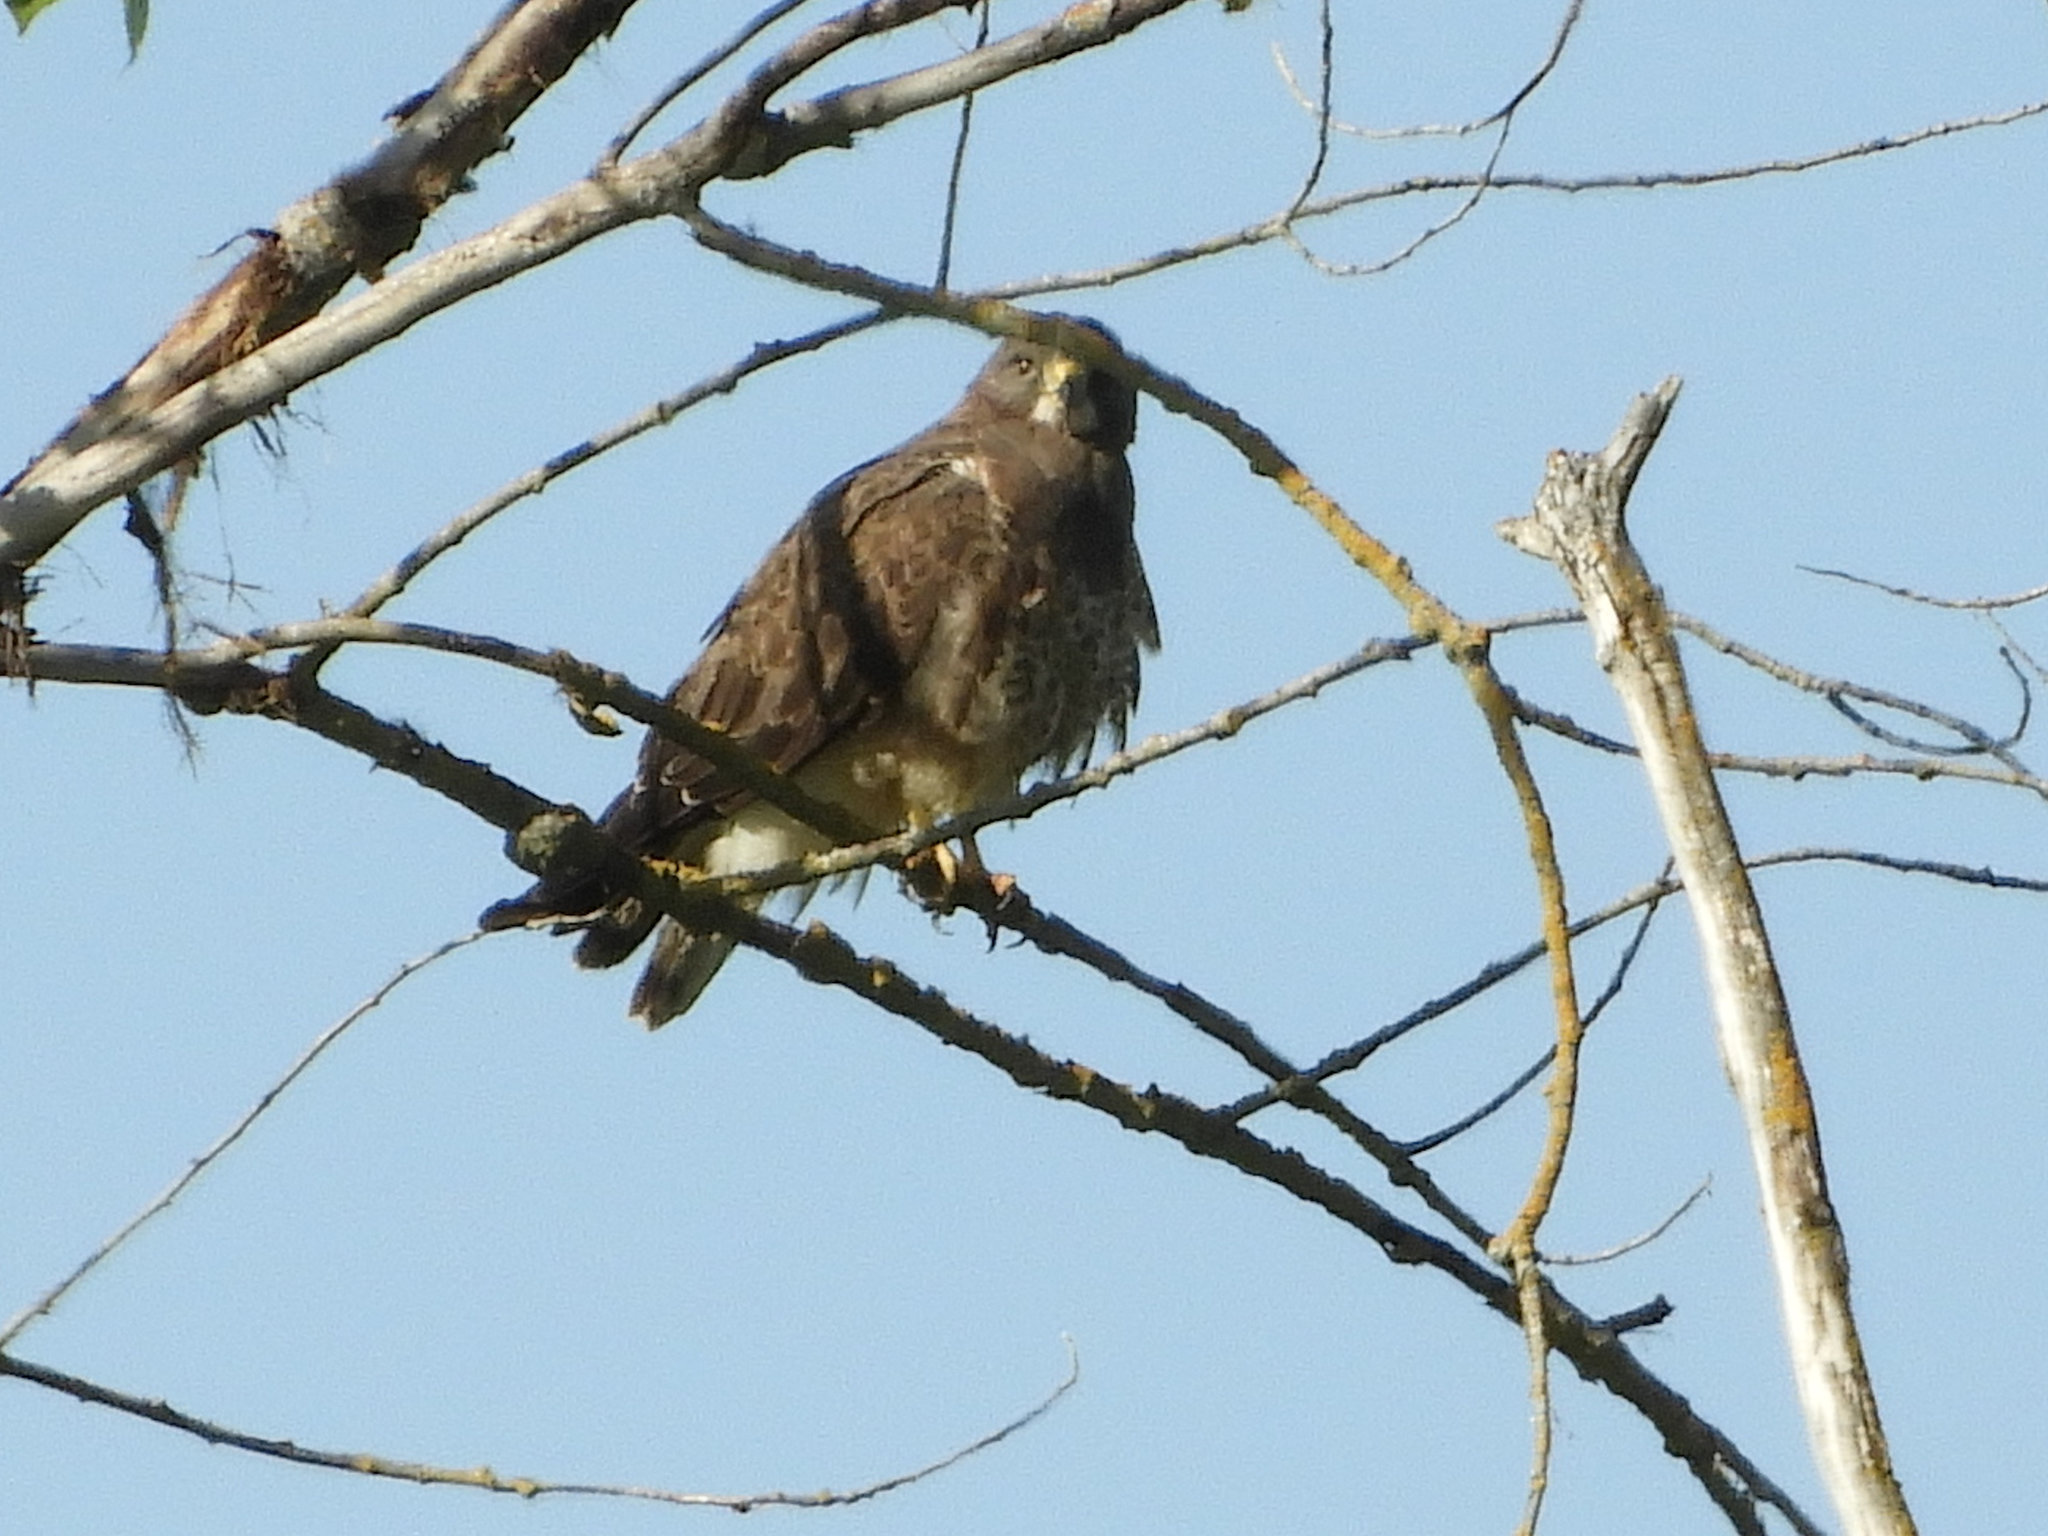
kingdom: Animalia
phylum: Chordata
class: Aves
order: Accipitriformes
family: Accipitridae
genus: Buteo
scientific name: Buteo swainsoni
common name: Swainson's hawk
